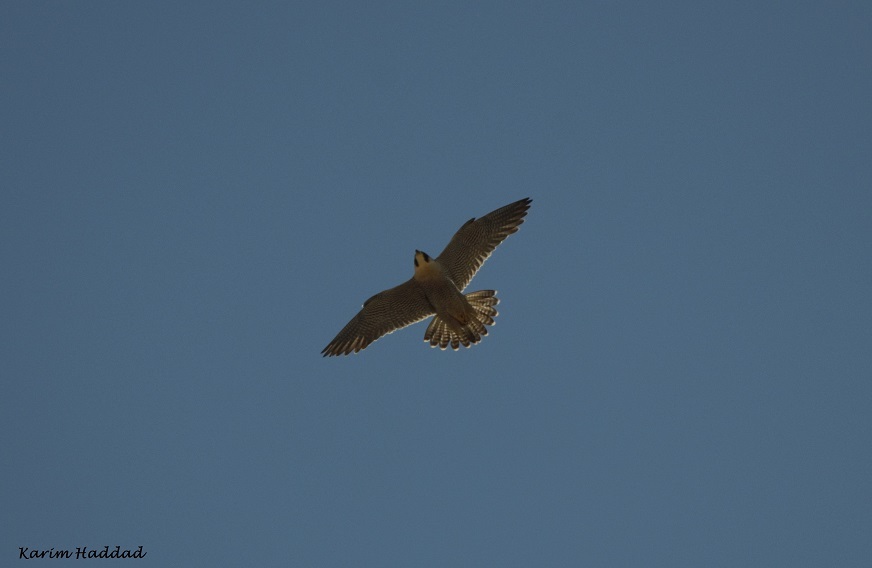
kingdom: Animalia
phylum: Chordata
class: Aves
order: Falconiformes
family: Falconidae
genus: Falco
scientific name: Falco peregrinus
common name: Peregrine falcon
